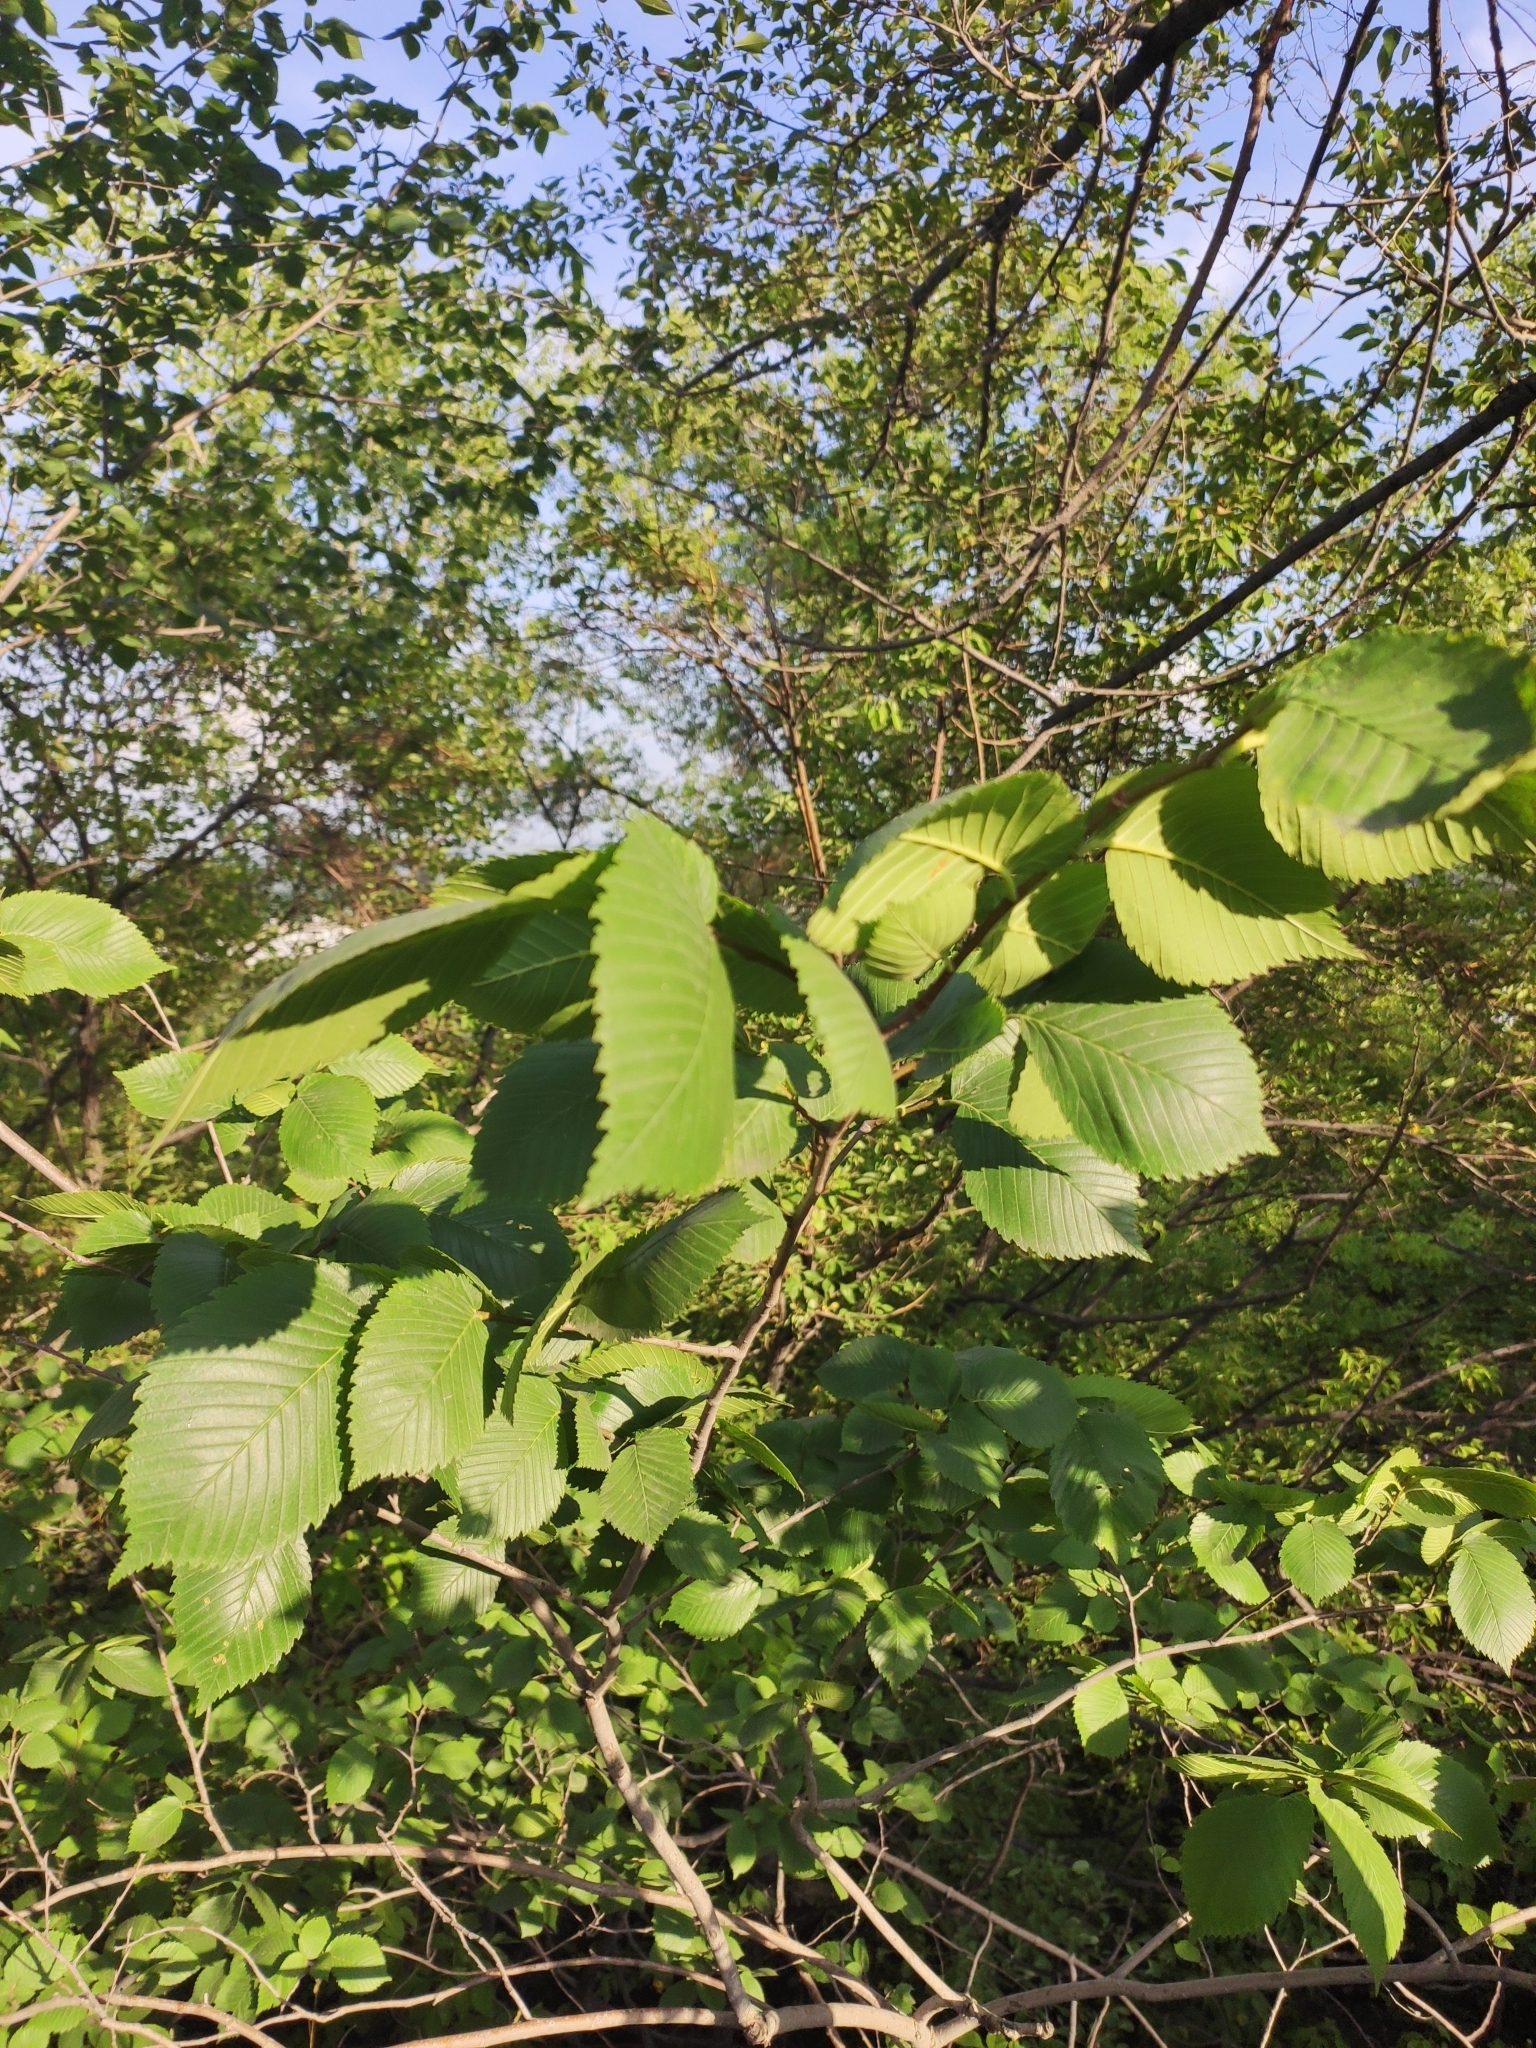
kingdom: Plantae
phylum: Tracheophyta
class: Magnoliopsida
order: Rosales
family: Ulmaceae
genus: Ulmus
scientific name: Ulmus laevis
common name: European white-elm
